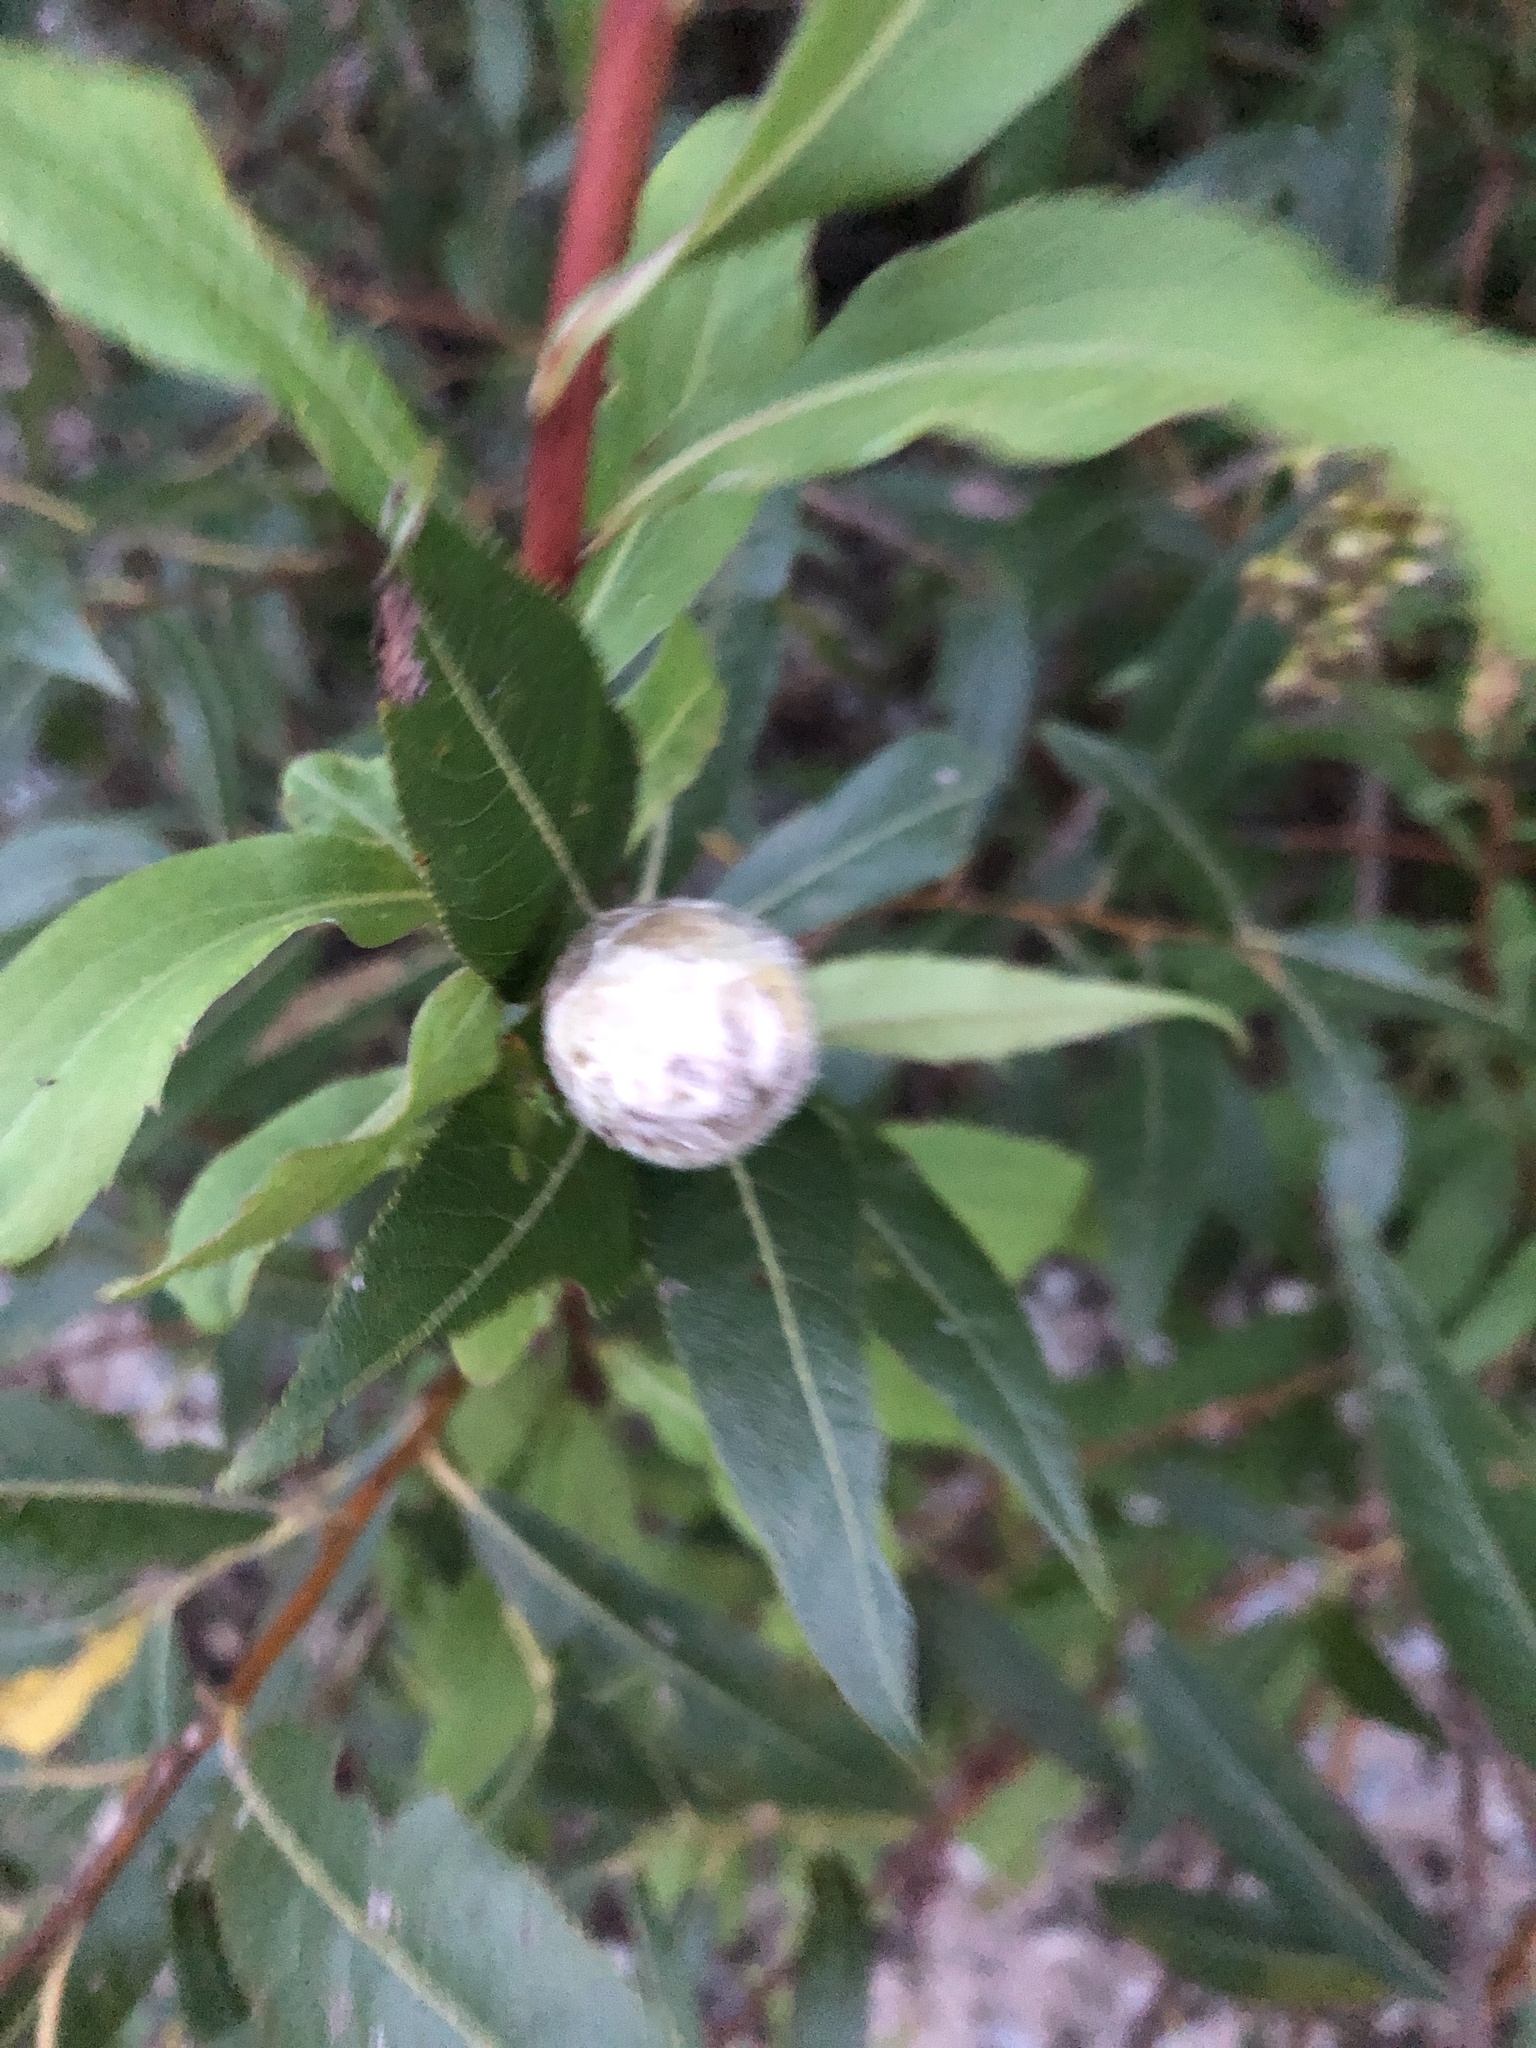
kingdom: Animalia
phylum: Arthropoda
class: Insecta
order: Diptera
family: Cecidomyiidae
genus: Rabdophaga
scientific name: Rabdophaga strobiloides
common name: Willow pinecone gall midge
